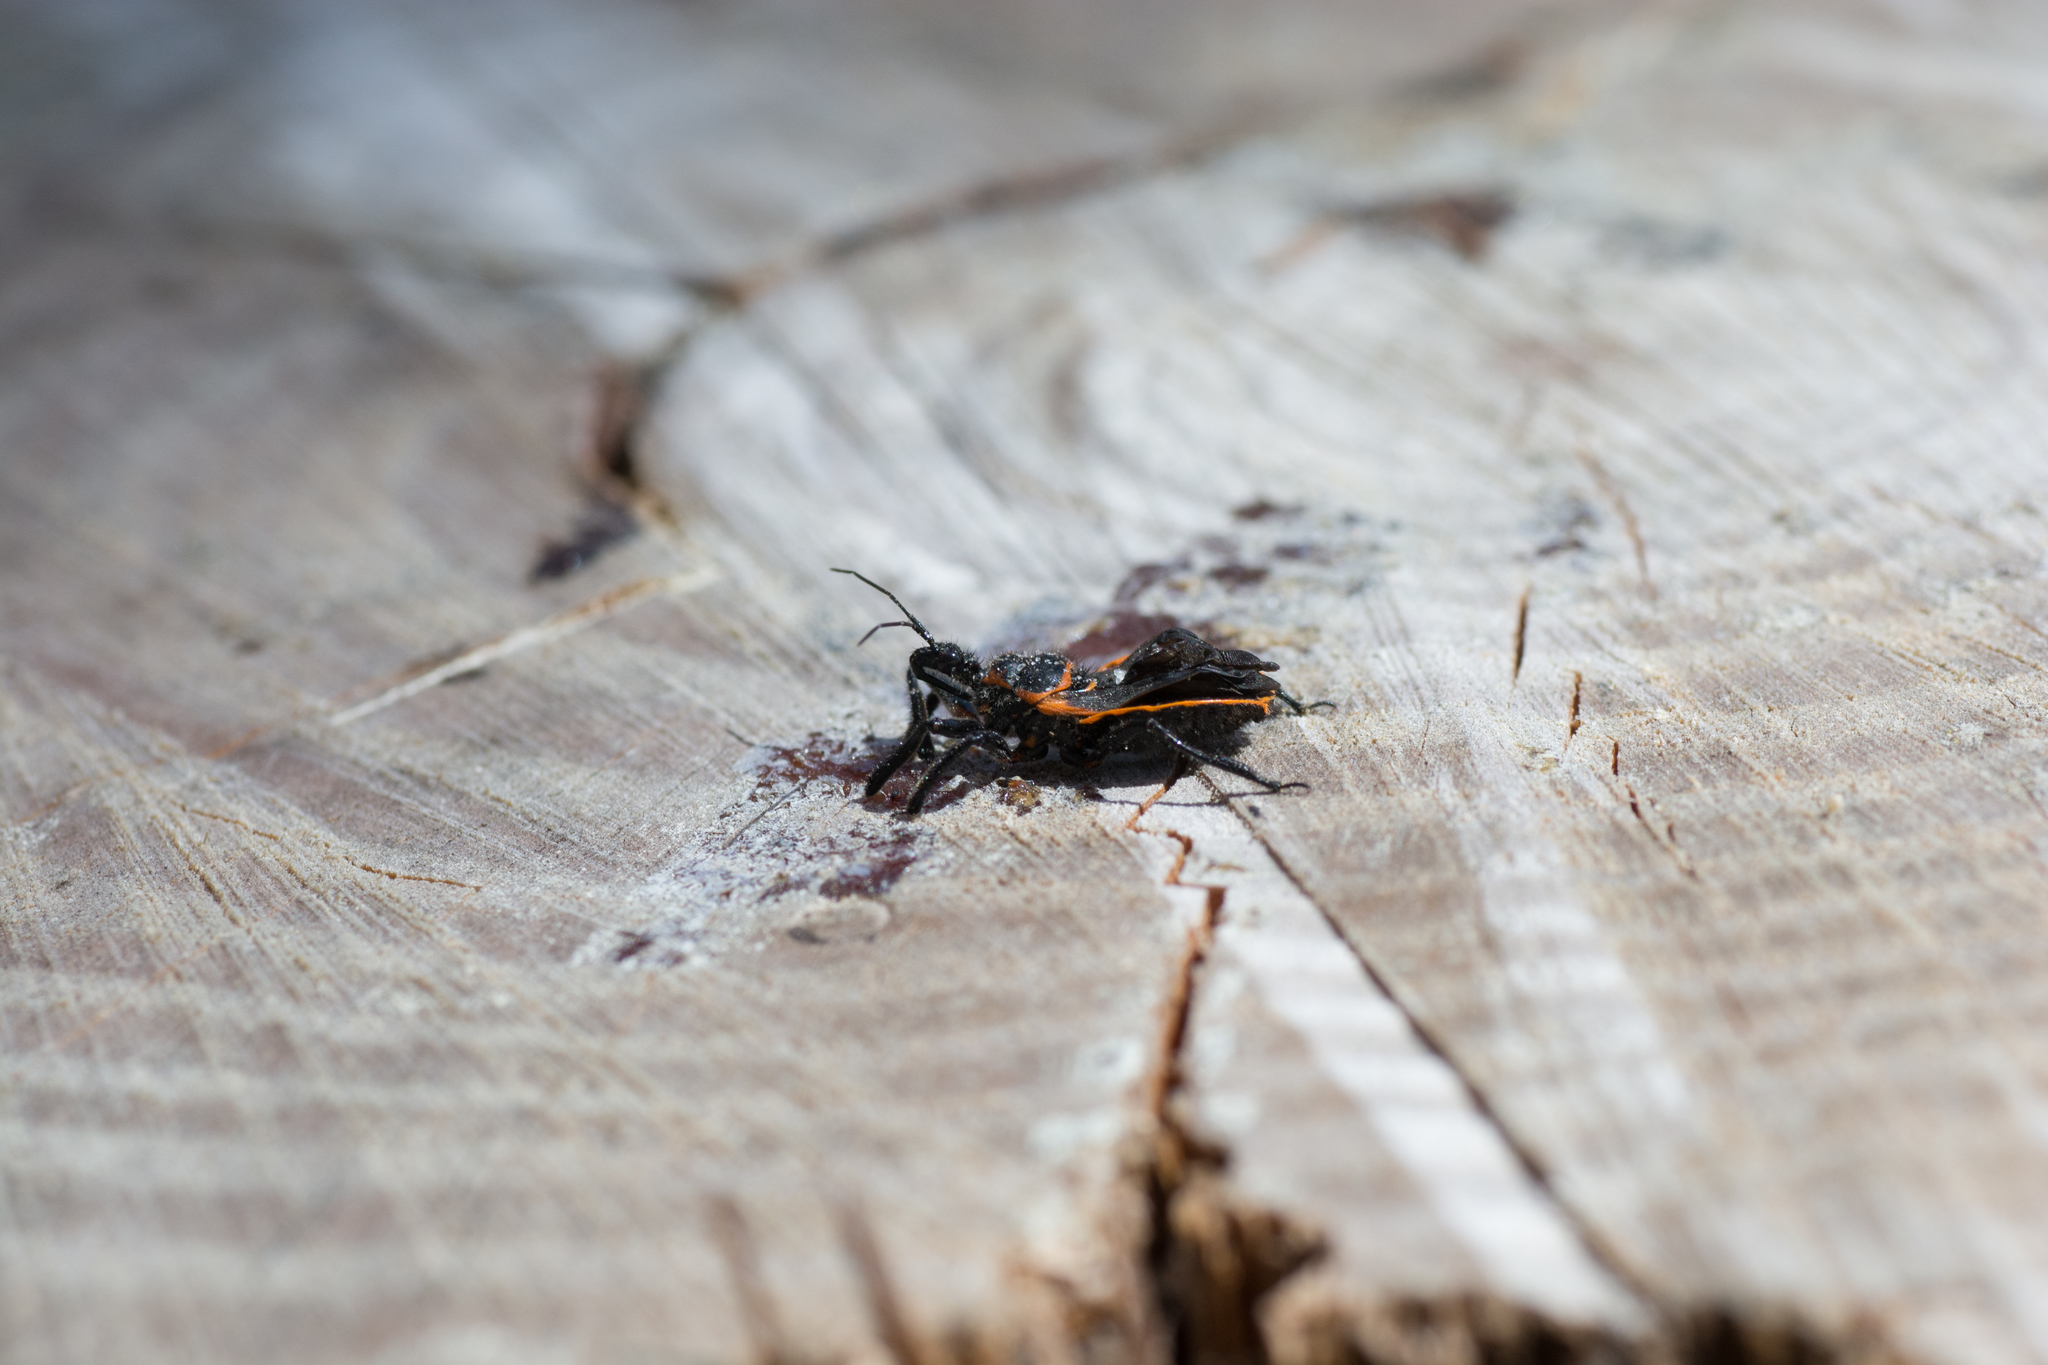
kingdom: Animalia
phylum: Arthropoda
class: Insecta
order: Hemiptera
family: Reduviidae
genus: Apiomerus
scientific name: Apiomerus crassipes
